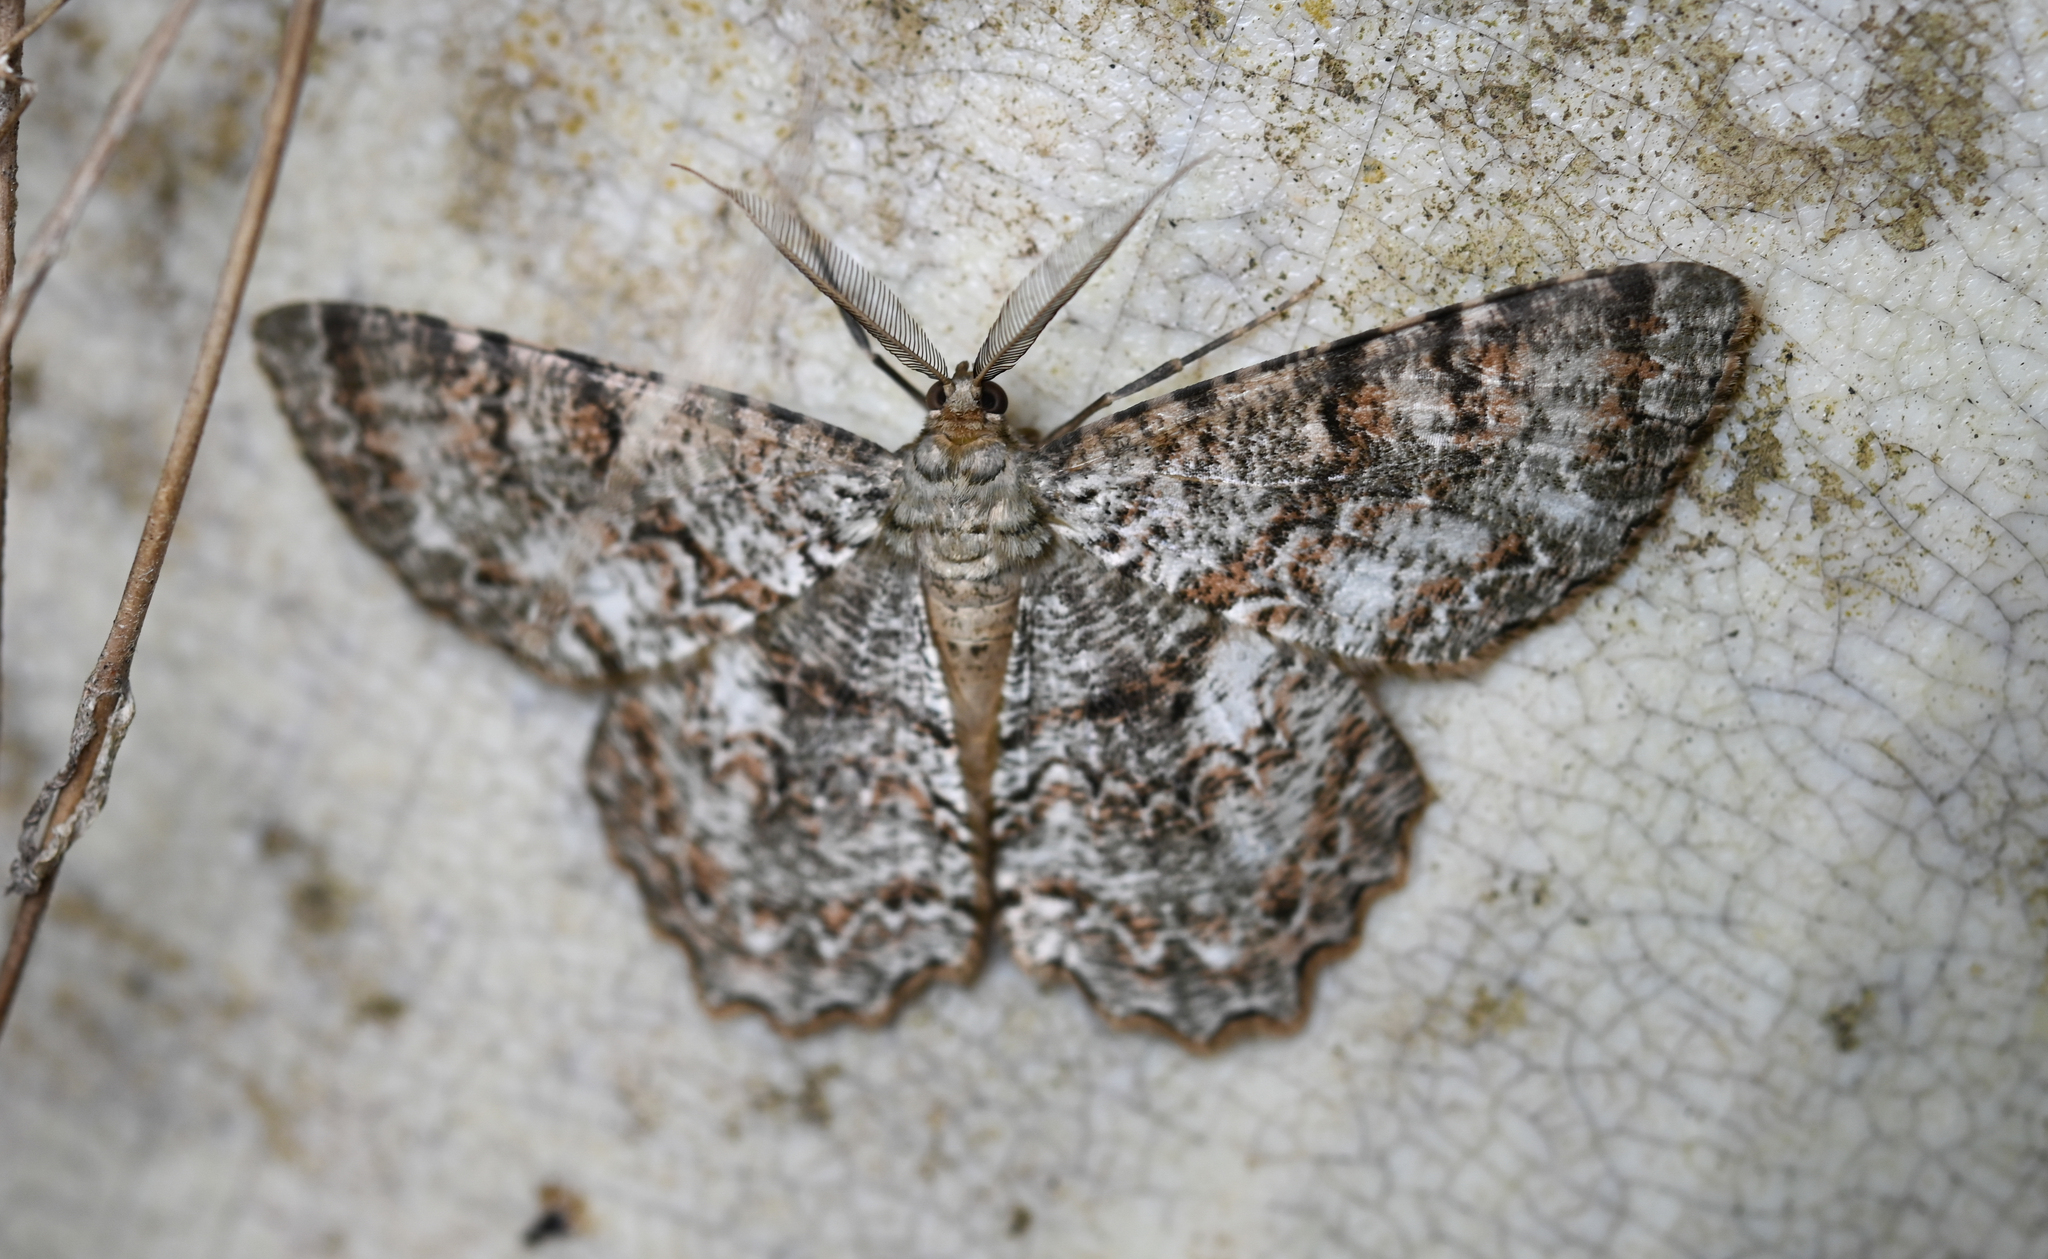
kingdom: Animalia
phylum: Arthropoda
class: Insecta
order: Lepidoptera
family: Geometridae
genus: Epimecis
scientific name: Epimecis hortaria
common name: Tulip-tree beauty
